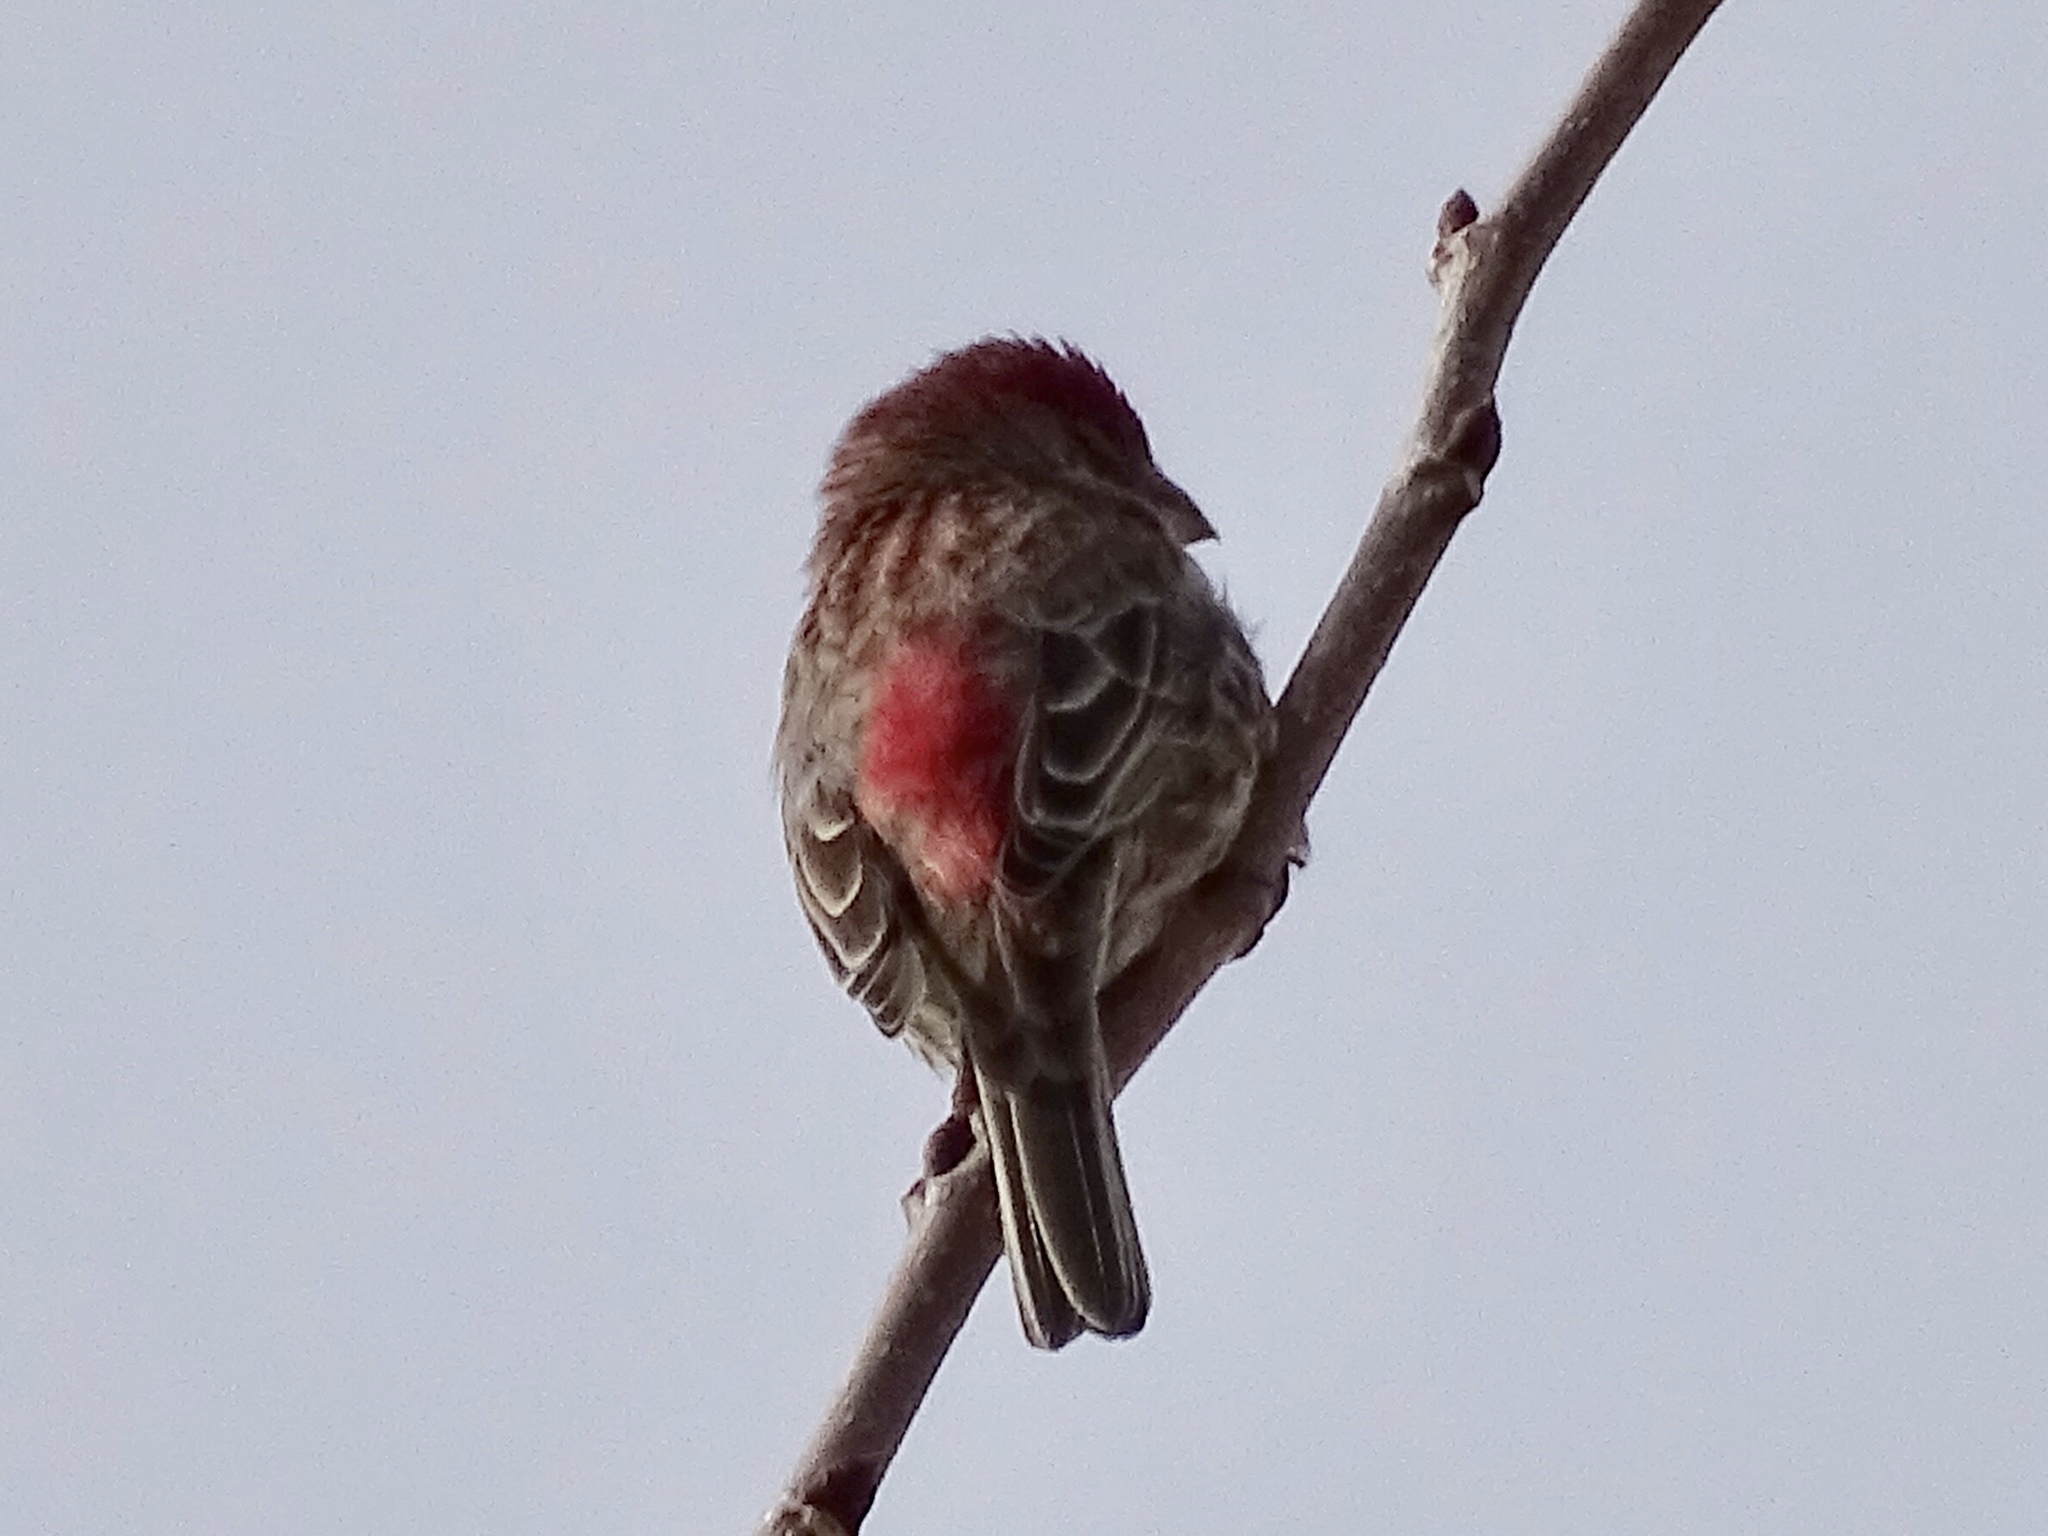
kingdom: Animalia
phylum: Chordata
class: Aves
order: Passeriformes
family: Fringillidae
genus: Haemorhous
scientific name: Haemorhous mexicanus
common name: House finch
